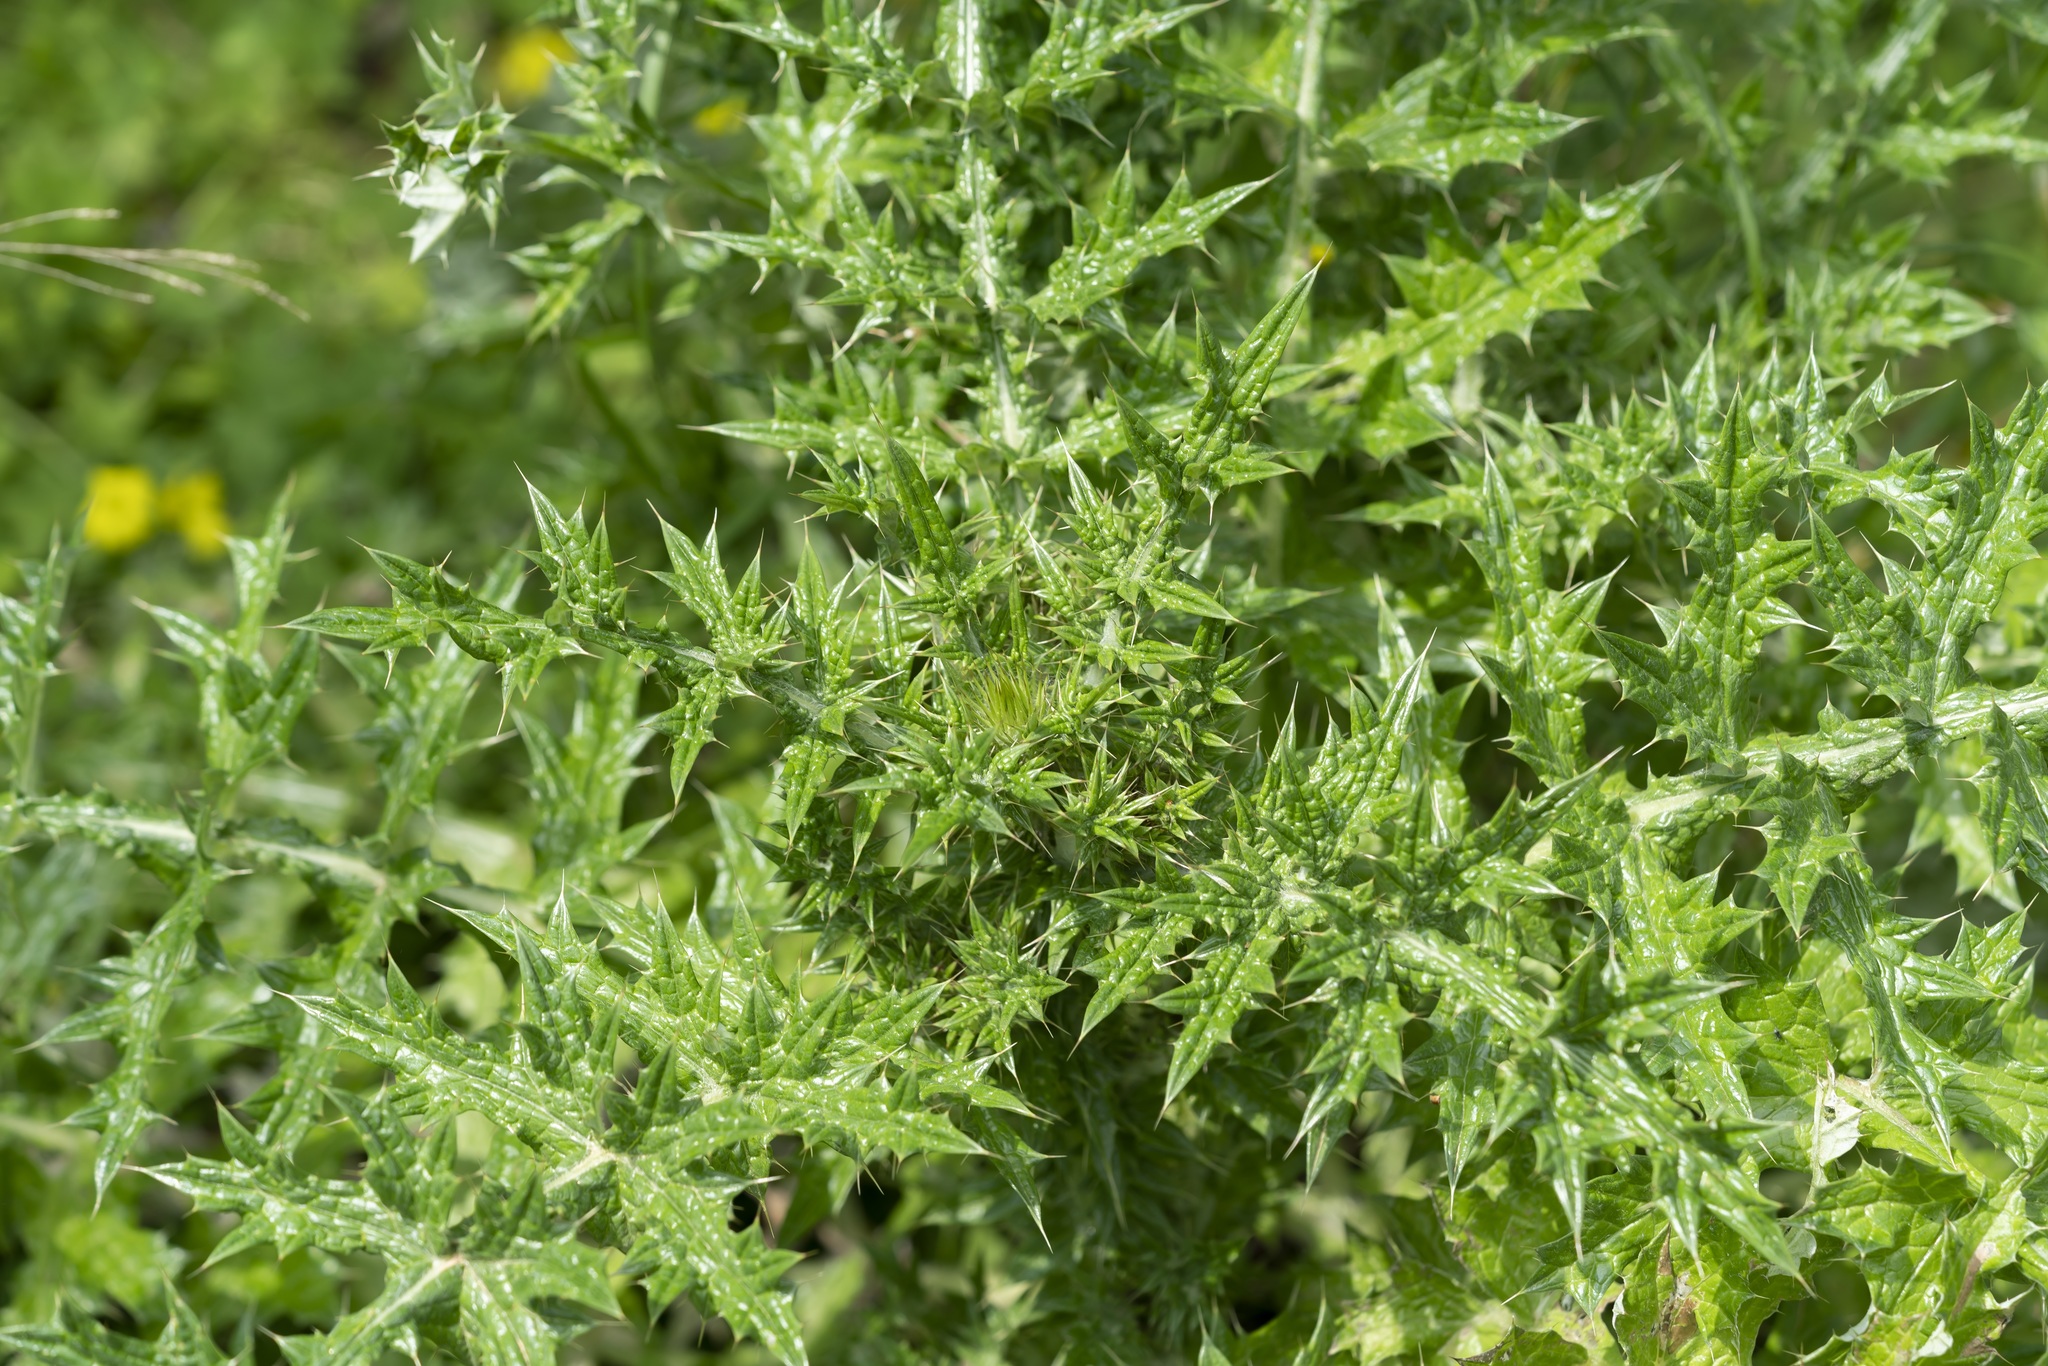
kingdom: Plantae
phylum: Tracheophyta
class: Magnoliopsida
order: Asterales
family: Asteraceae
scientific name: Asteraceae
